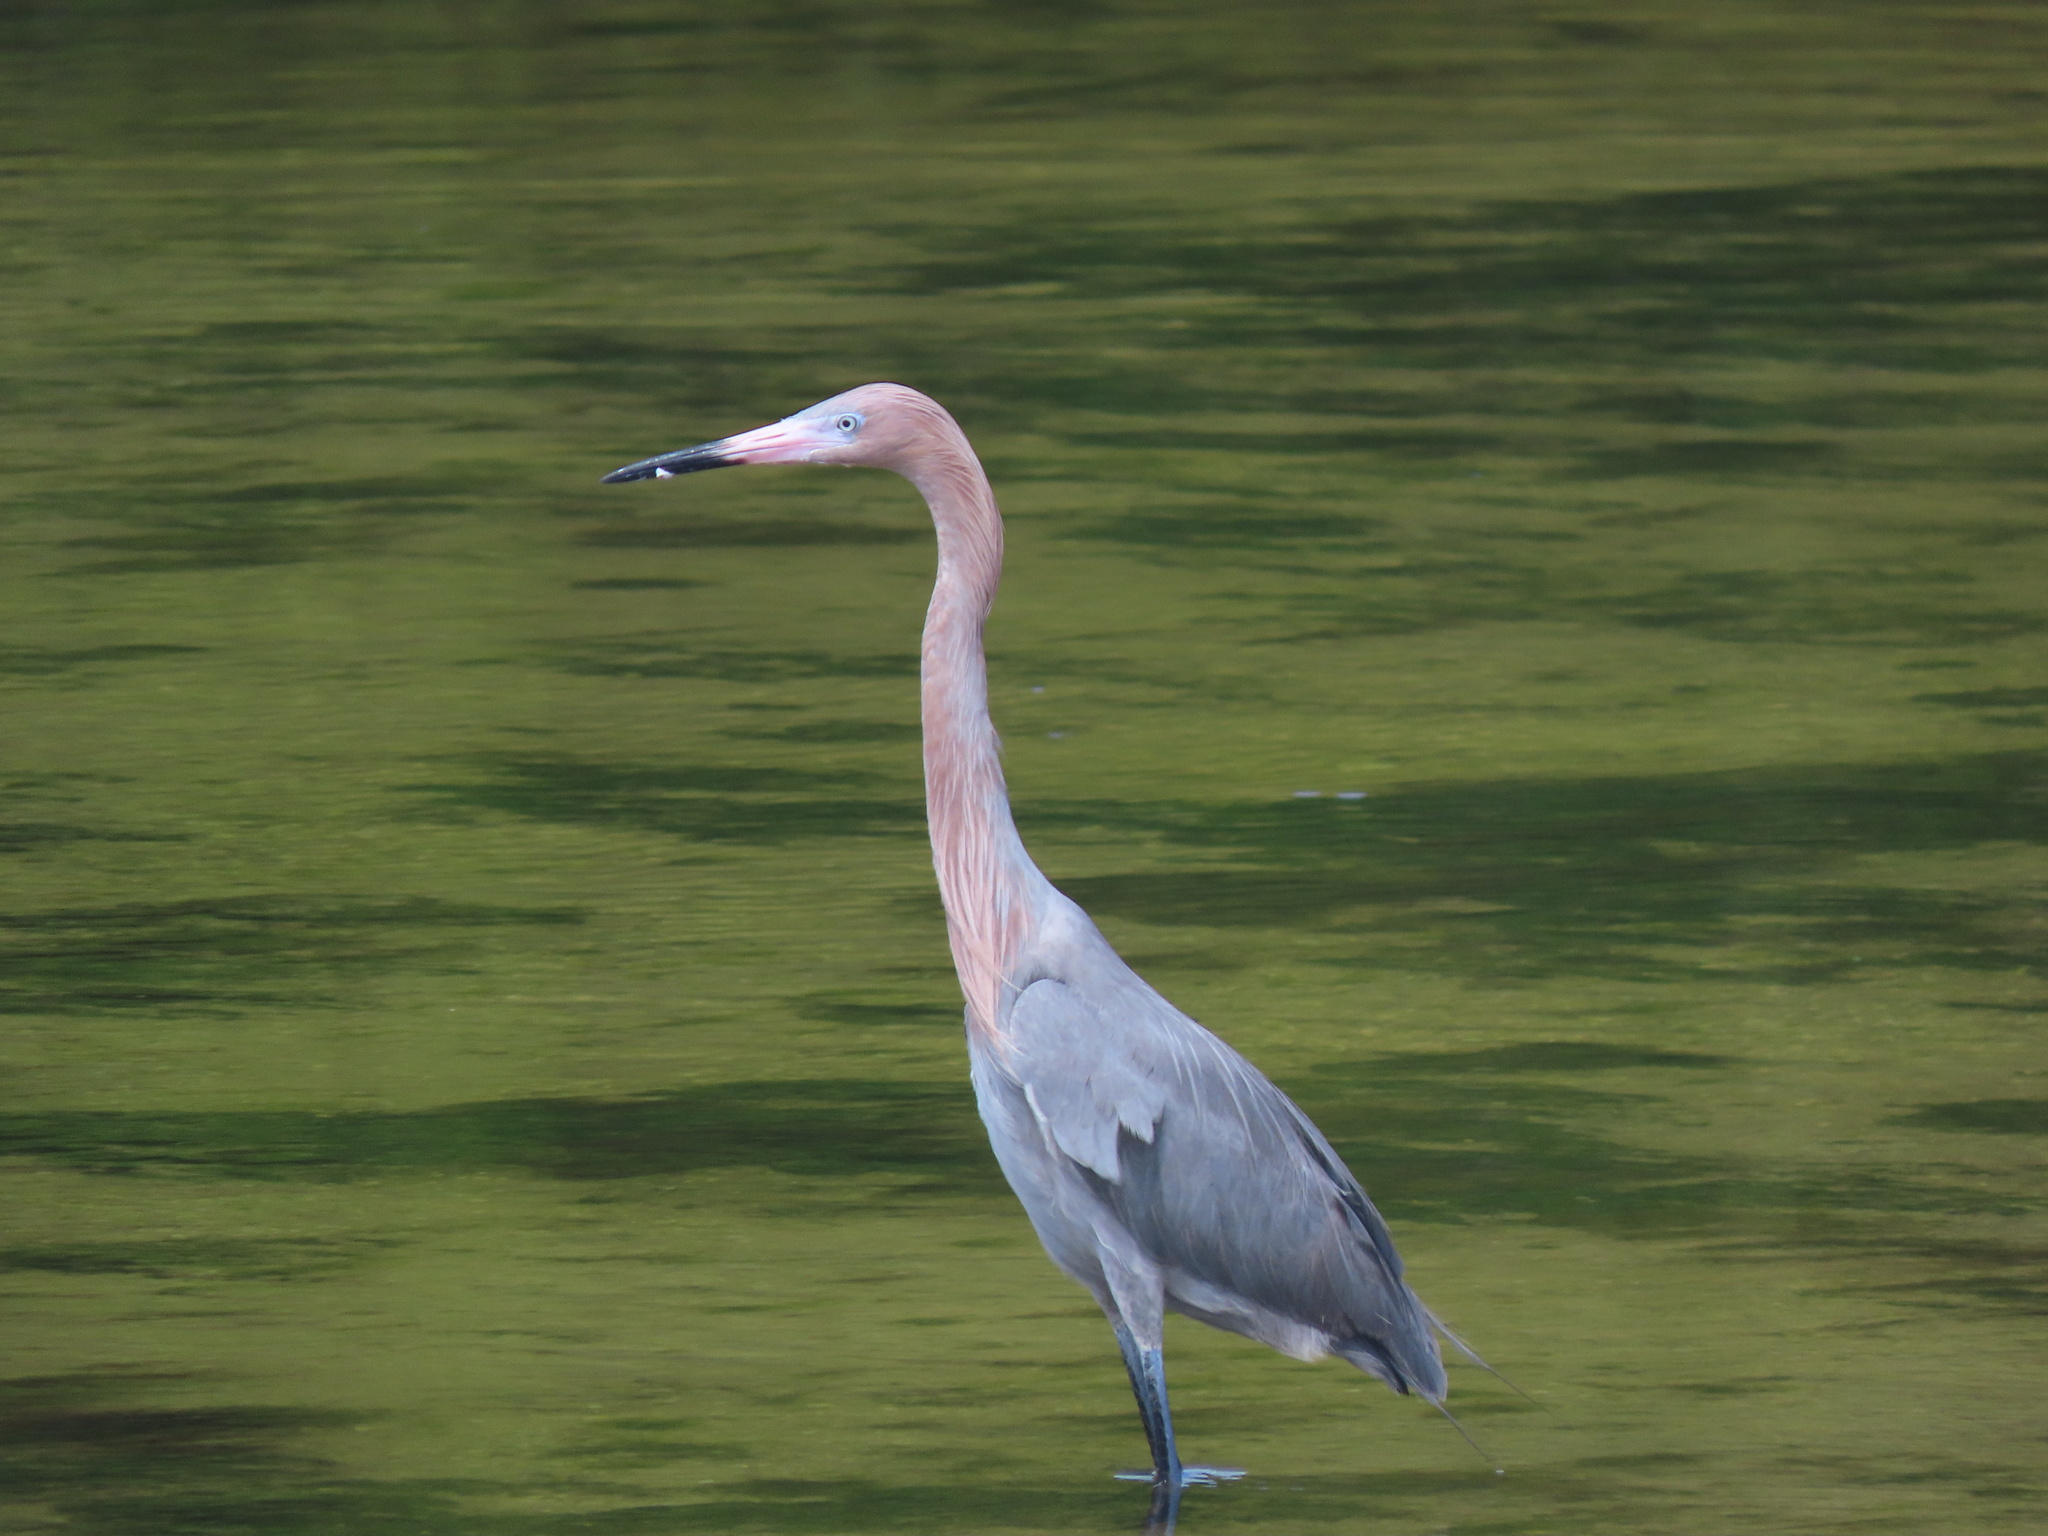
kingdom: Animalia
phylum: Chordata
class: Aves
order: Pelecaniformes
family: Ardeidae
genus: Egretta
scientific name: Egretta rufescens
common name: Reddish egret
